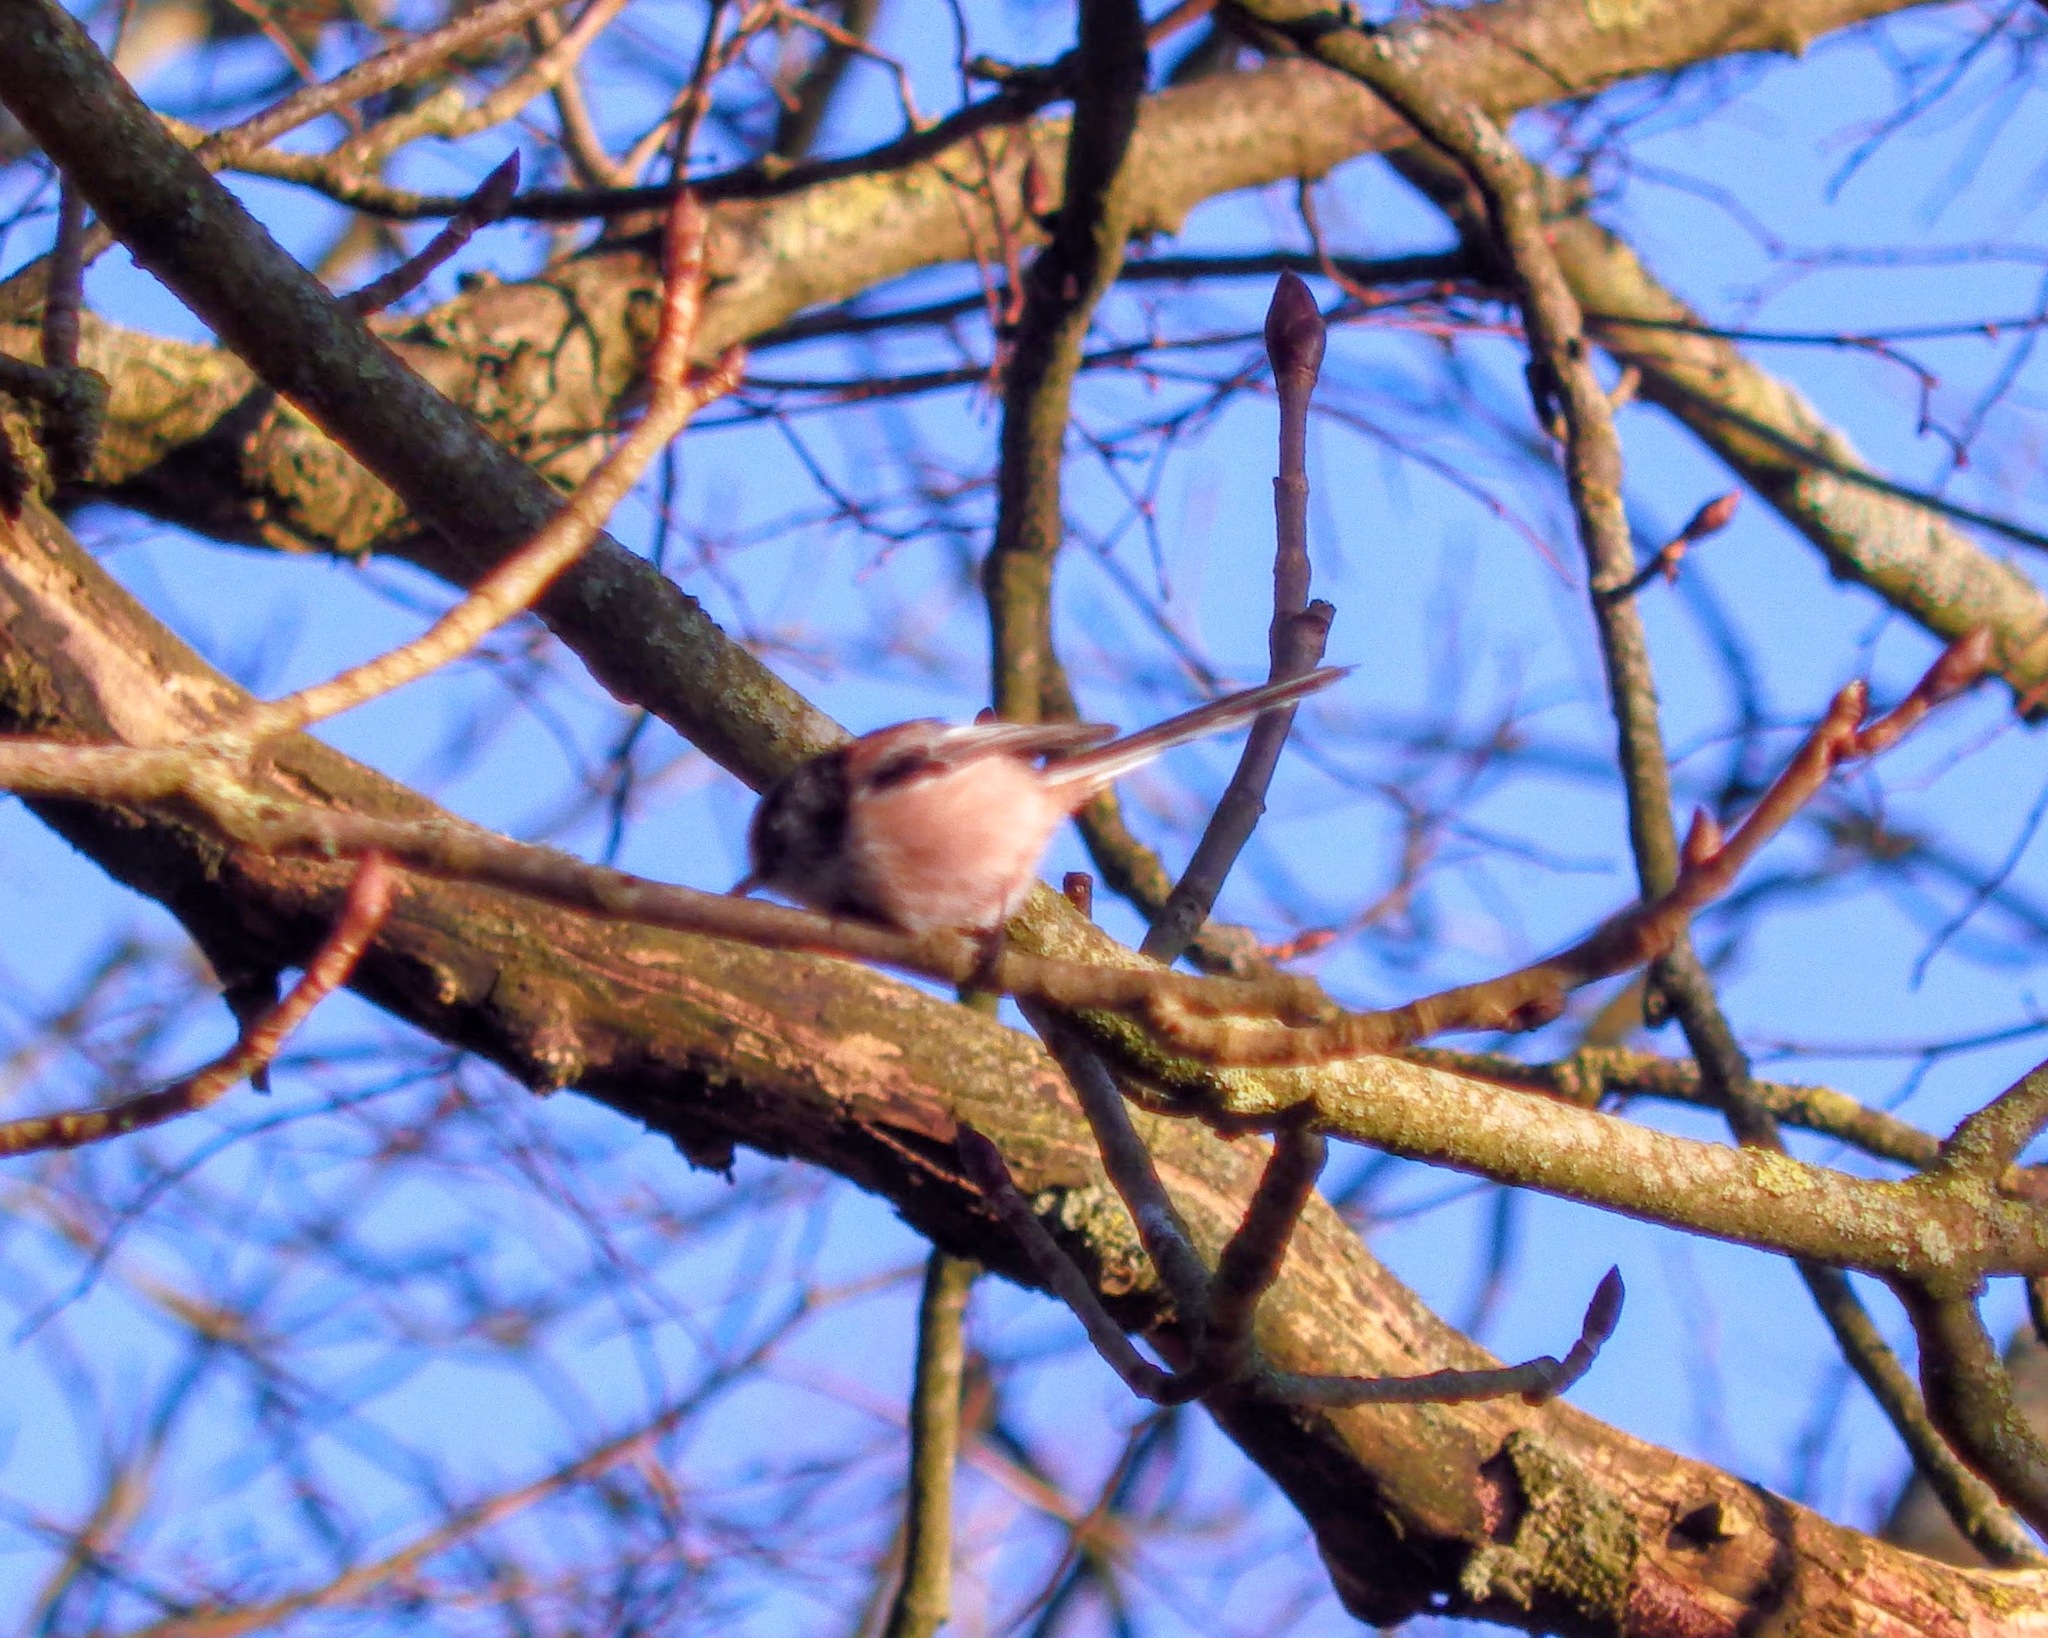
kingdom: Animalia
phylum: Chordata
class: Aves
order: Passeriformes
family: Aegithalidae
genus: Aegithalos
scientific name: Aegithalos caudatus
